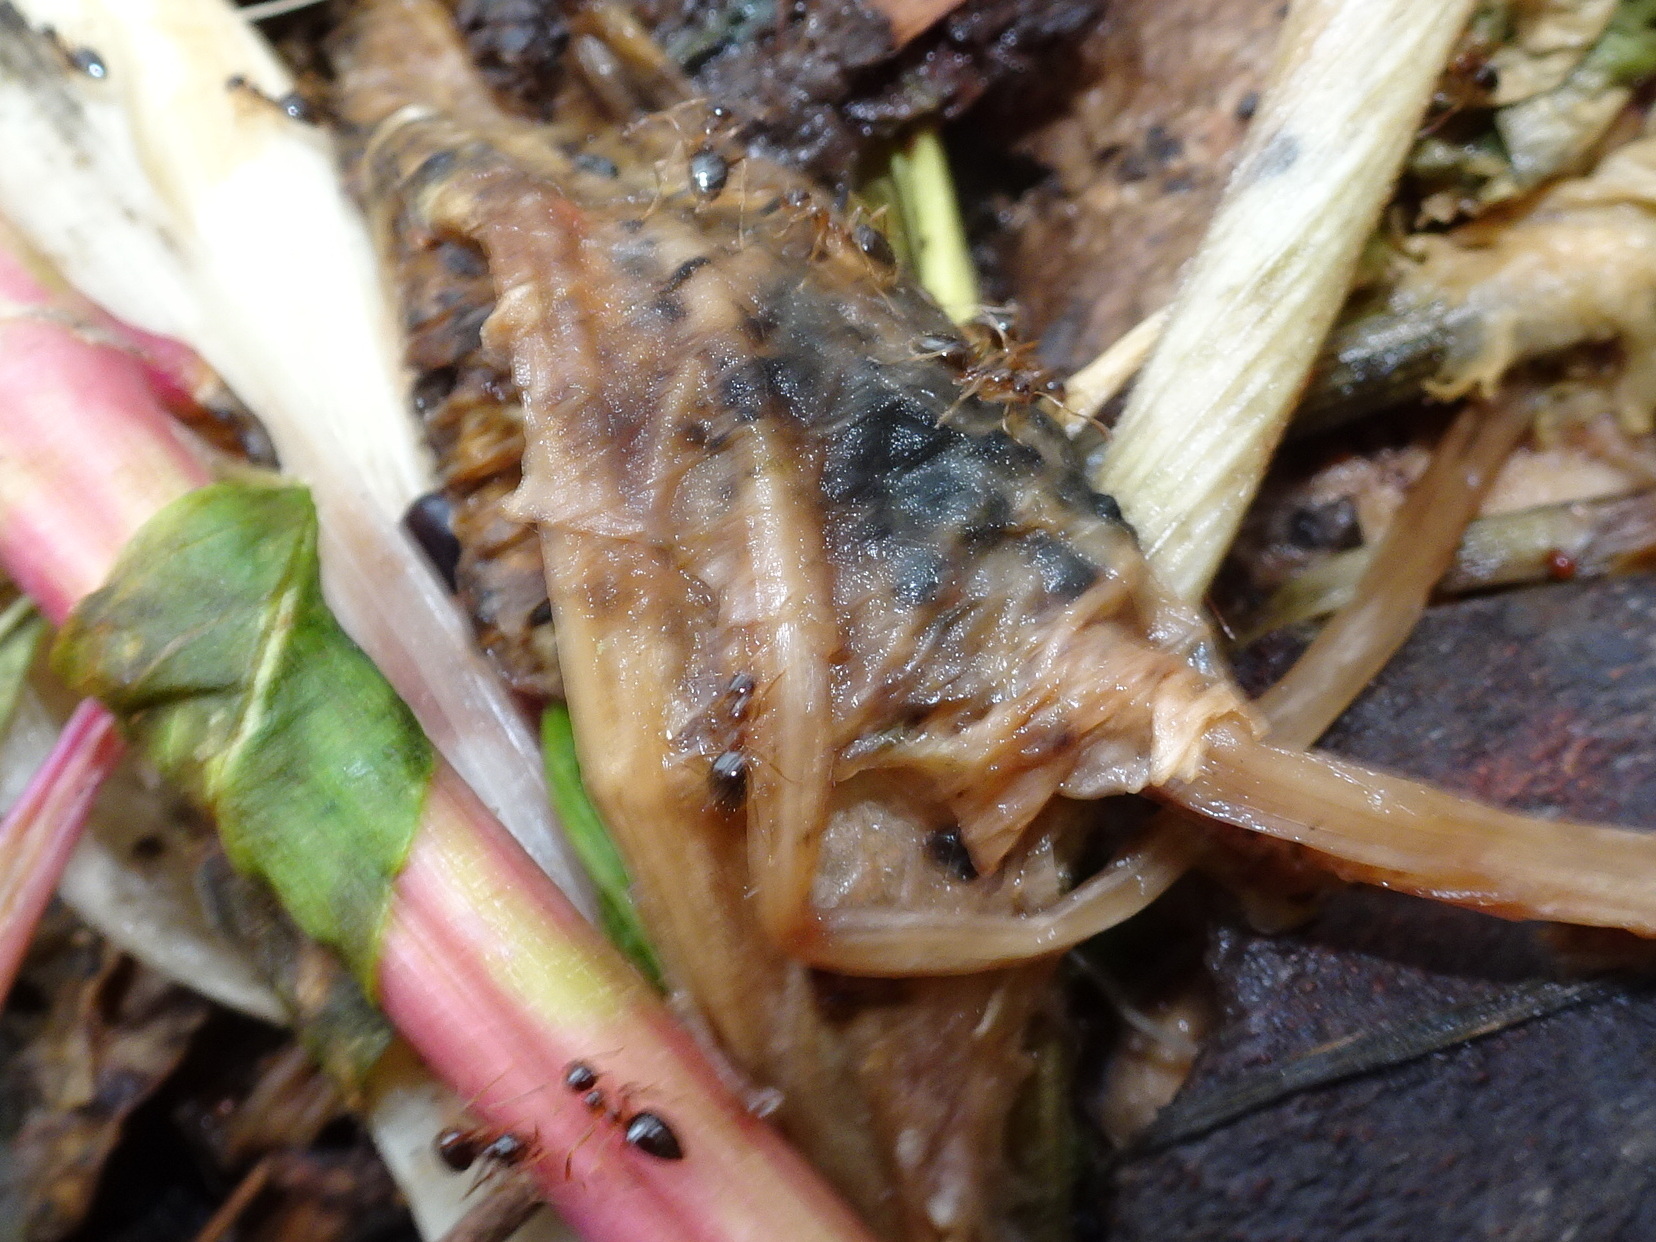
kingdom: Animalia
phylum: Arthropoda
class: Insecta
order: Hymenoptera
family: Formicidae
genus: Prenolepis
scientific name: Prenolepis imparis
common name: Small honey ant
